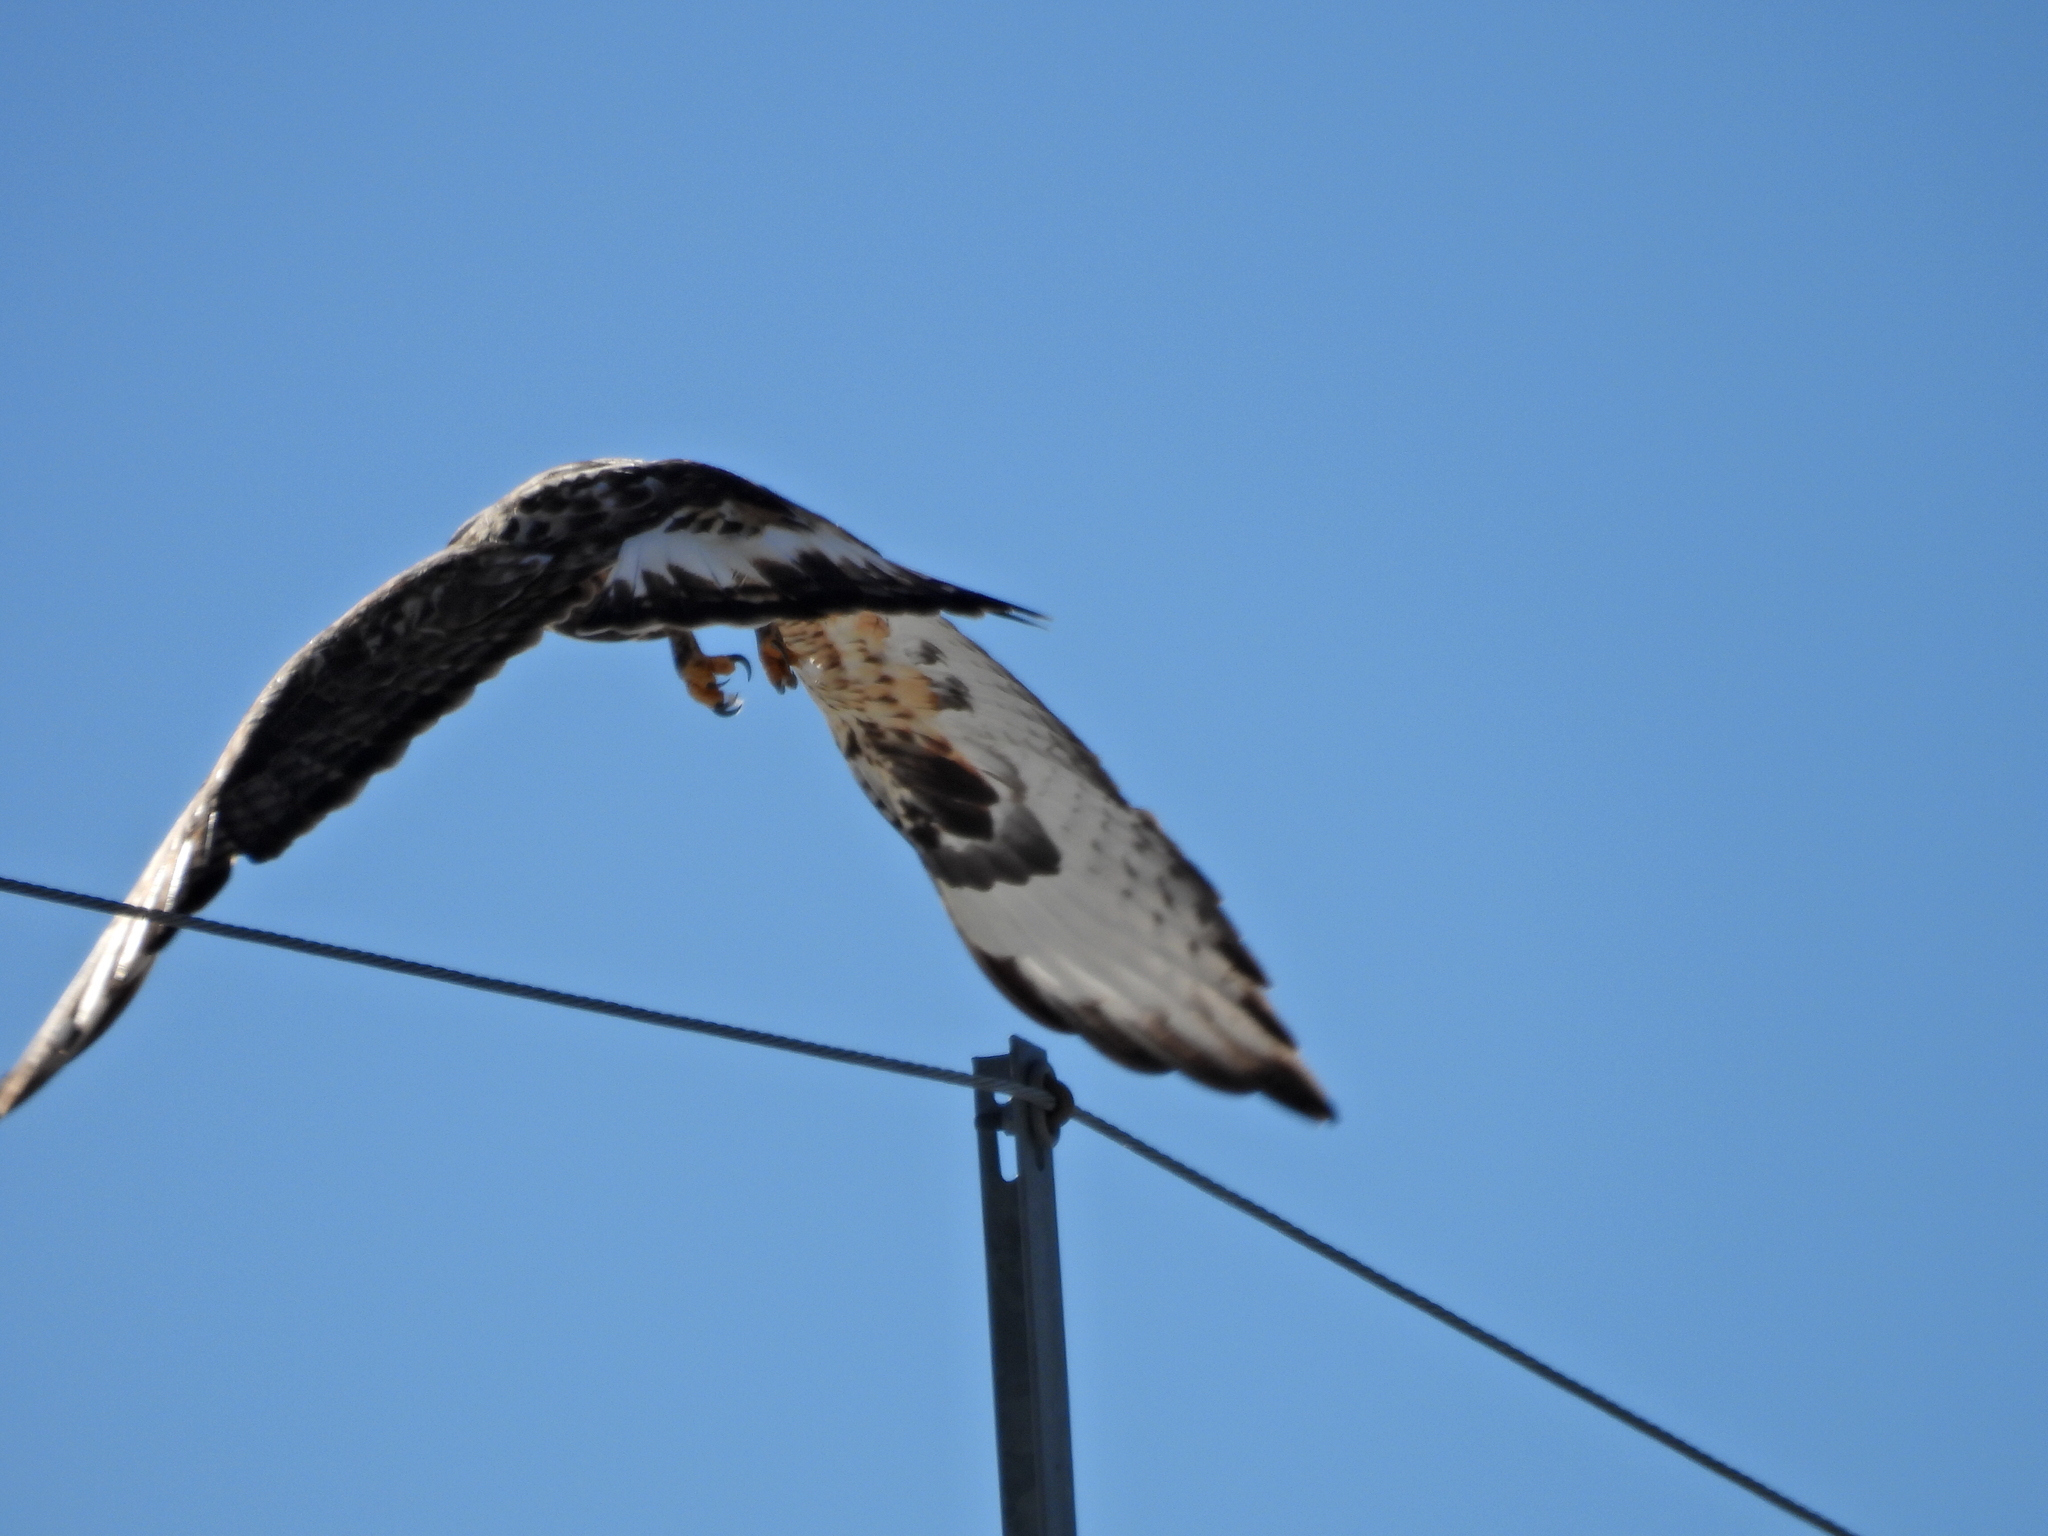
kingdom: Animalia
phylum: Chordata
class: Aves
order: Accipitriformes
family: Accipitridae
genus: Buteo
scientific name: Buteo lagopus
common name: Rough-legged buzzard
